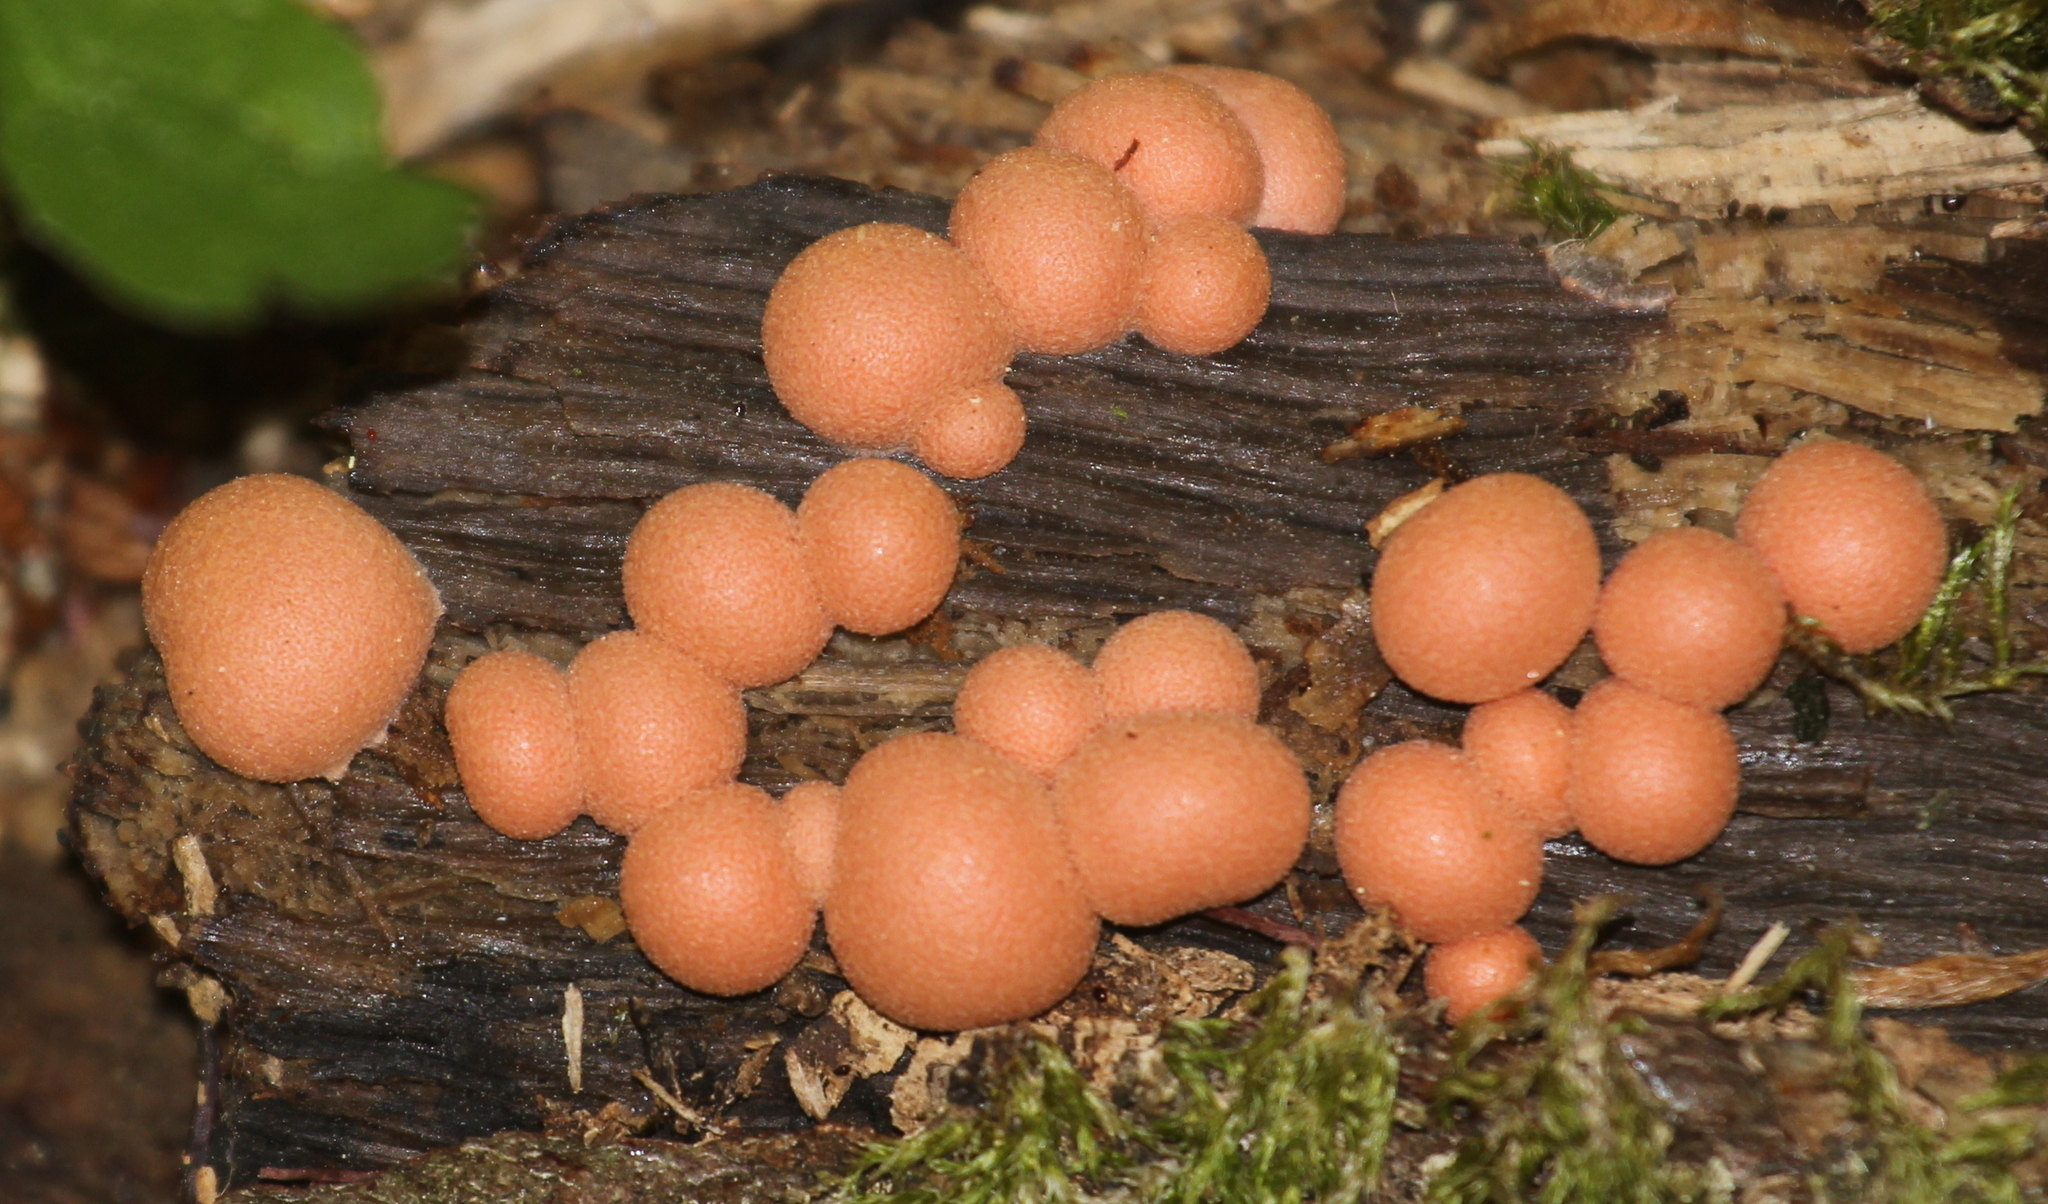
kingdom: Protozoa
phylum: Mycetozoa
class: Myxomycetes
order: Cribrariales
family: Tubiferaceae
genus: Lycogala
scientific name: Lycogala epidendrum
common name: Wolf's milk
